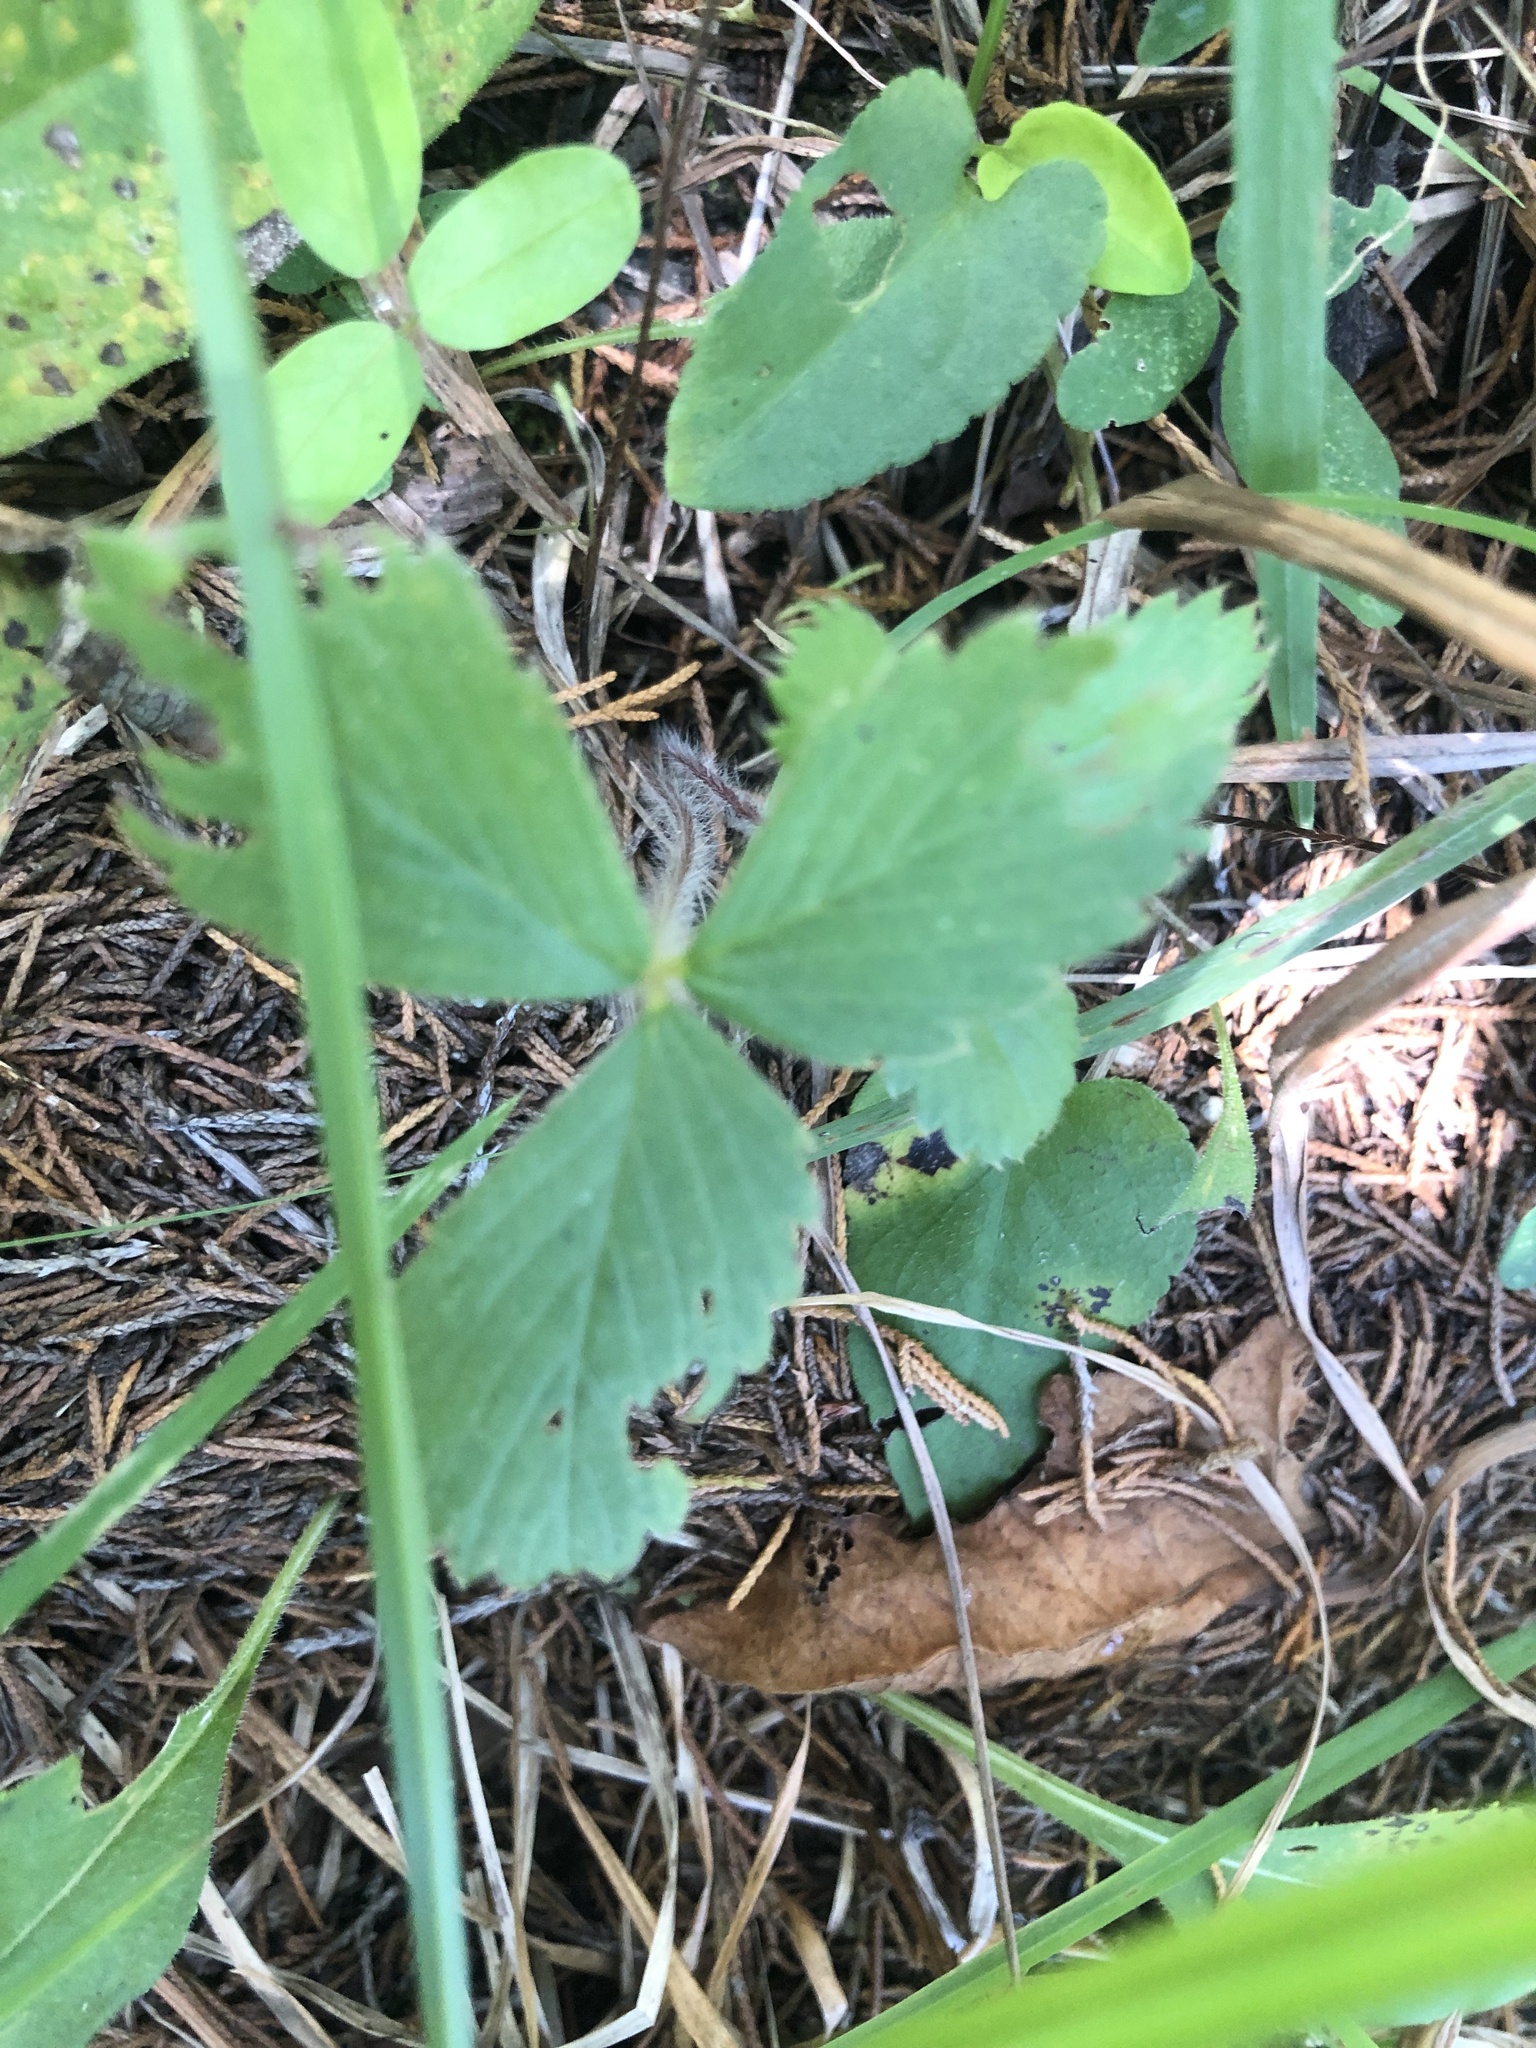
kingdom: Plantae
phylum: Tracheophyta
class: Magnoliopsida
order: Rosales
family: Rosaceae
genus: Fragaria
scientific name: Fragaria virginiana
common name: Thickleaved wild strawberry
